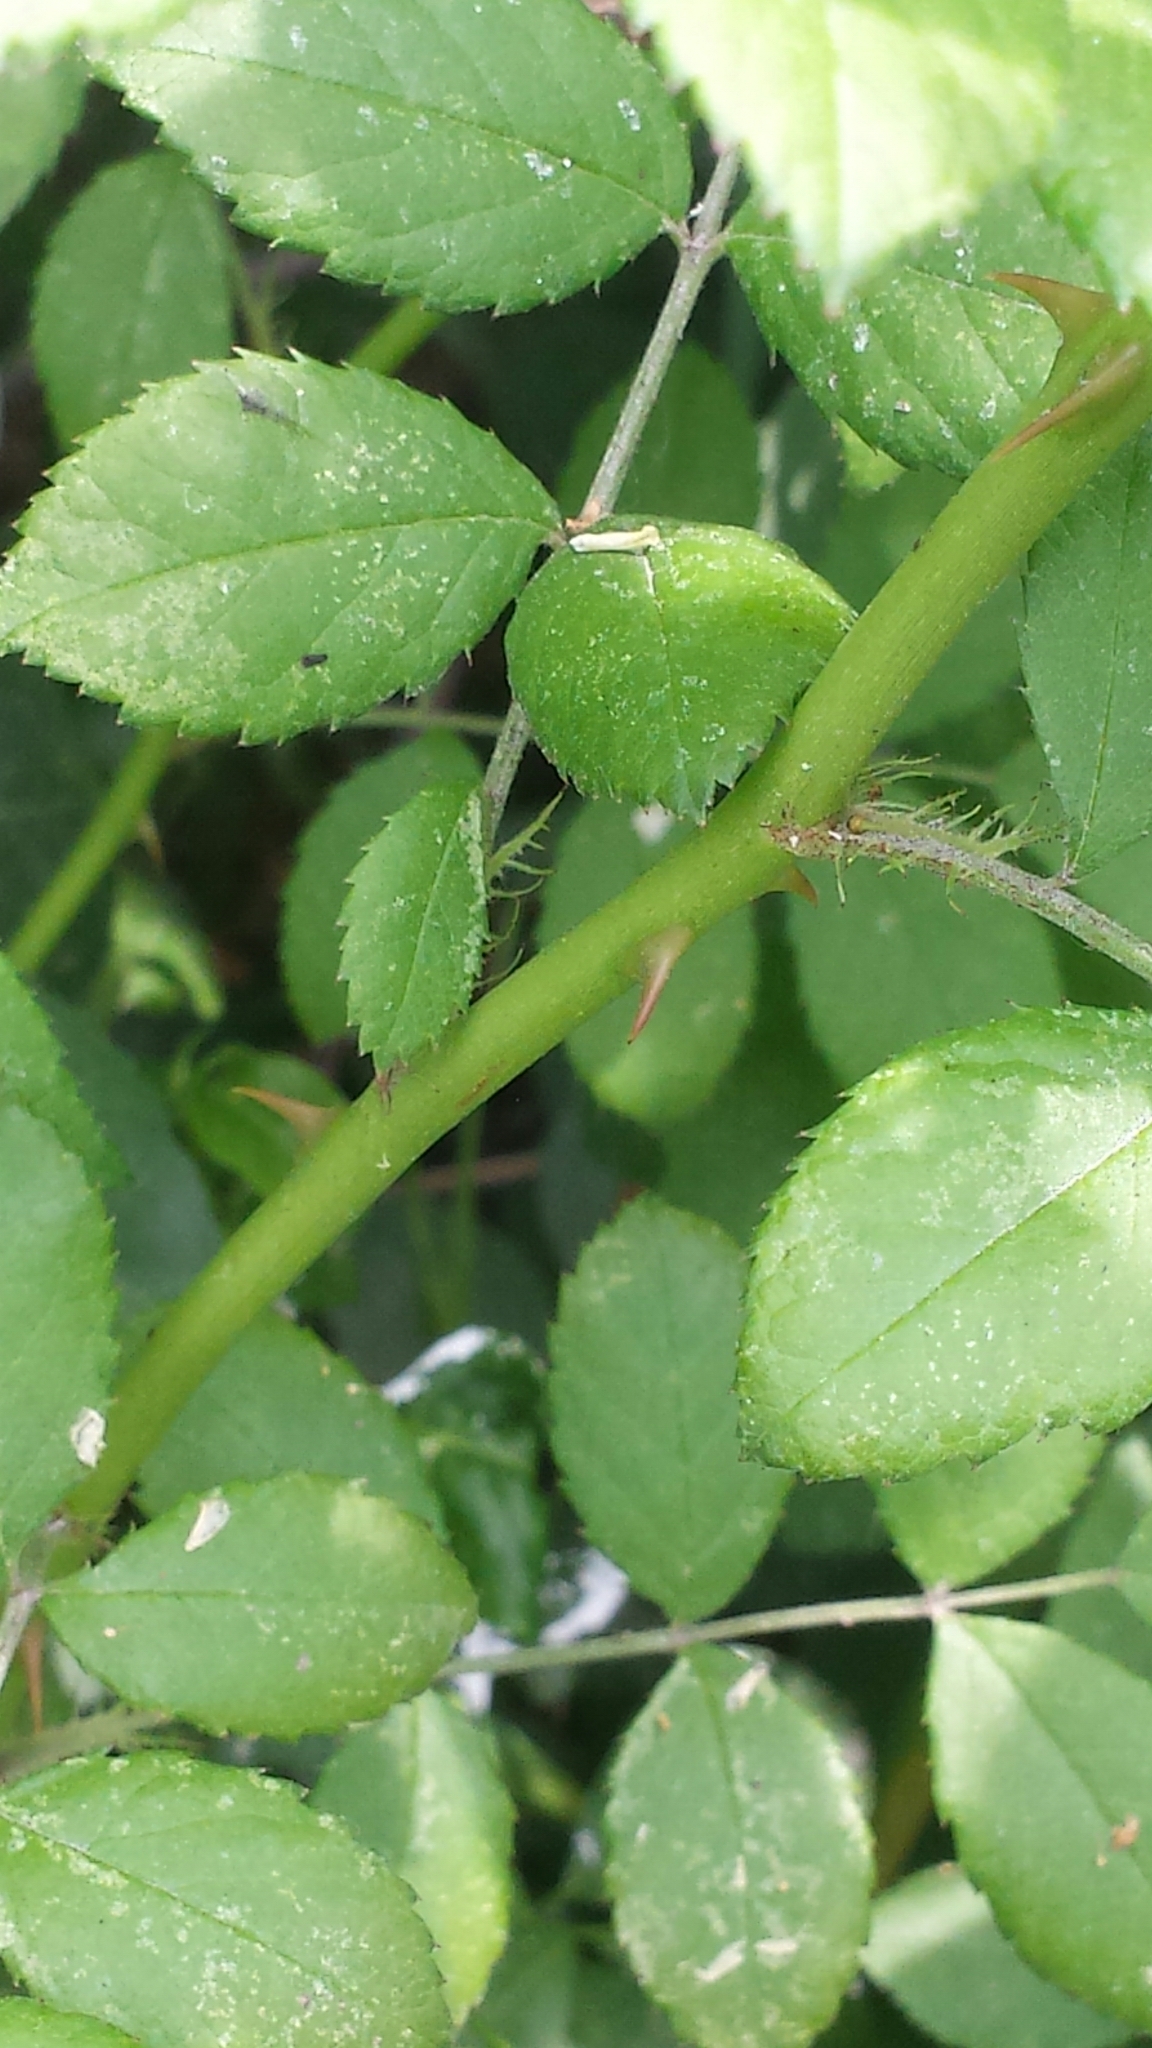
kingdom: Plantae
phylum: Tracheophyta
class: Magnoliopsida
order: Rosales
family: Rosaceae
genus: Rosa
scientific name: Rosa multiflora
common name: Multiflora rose
